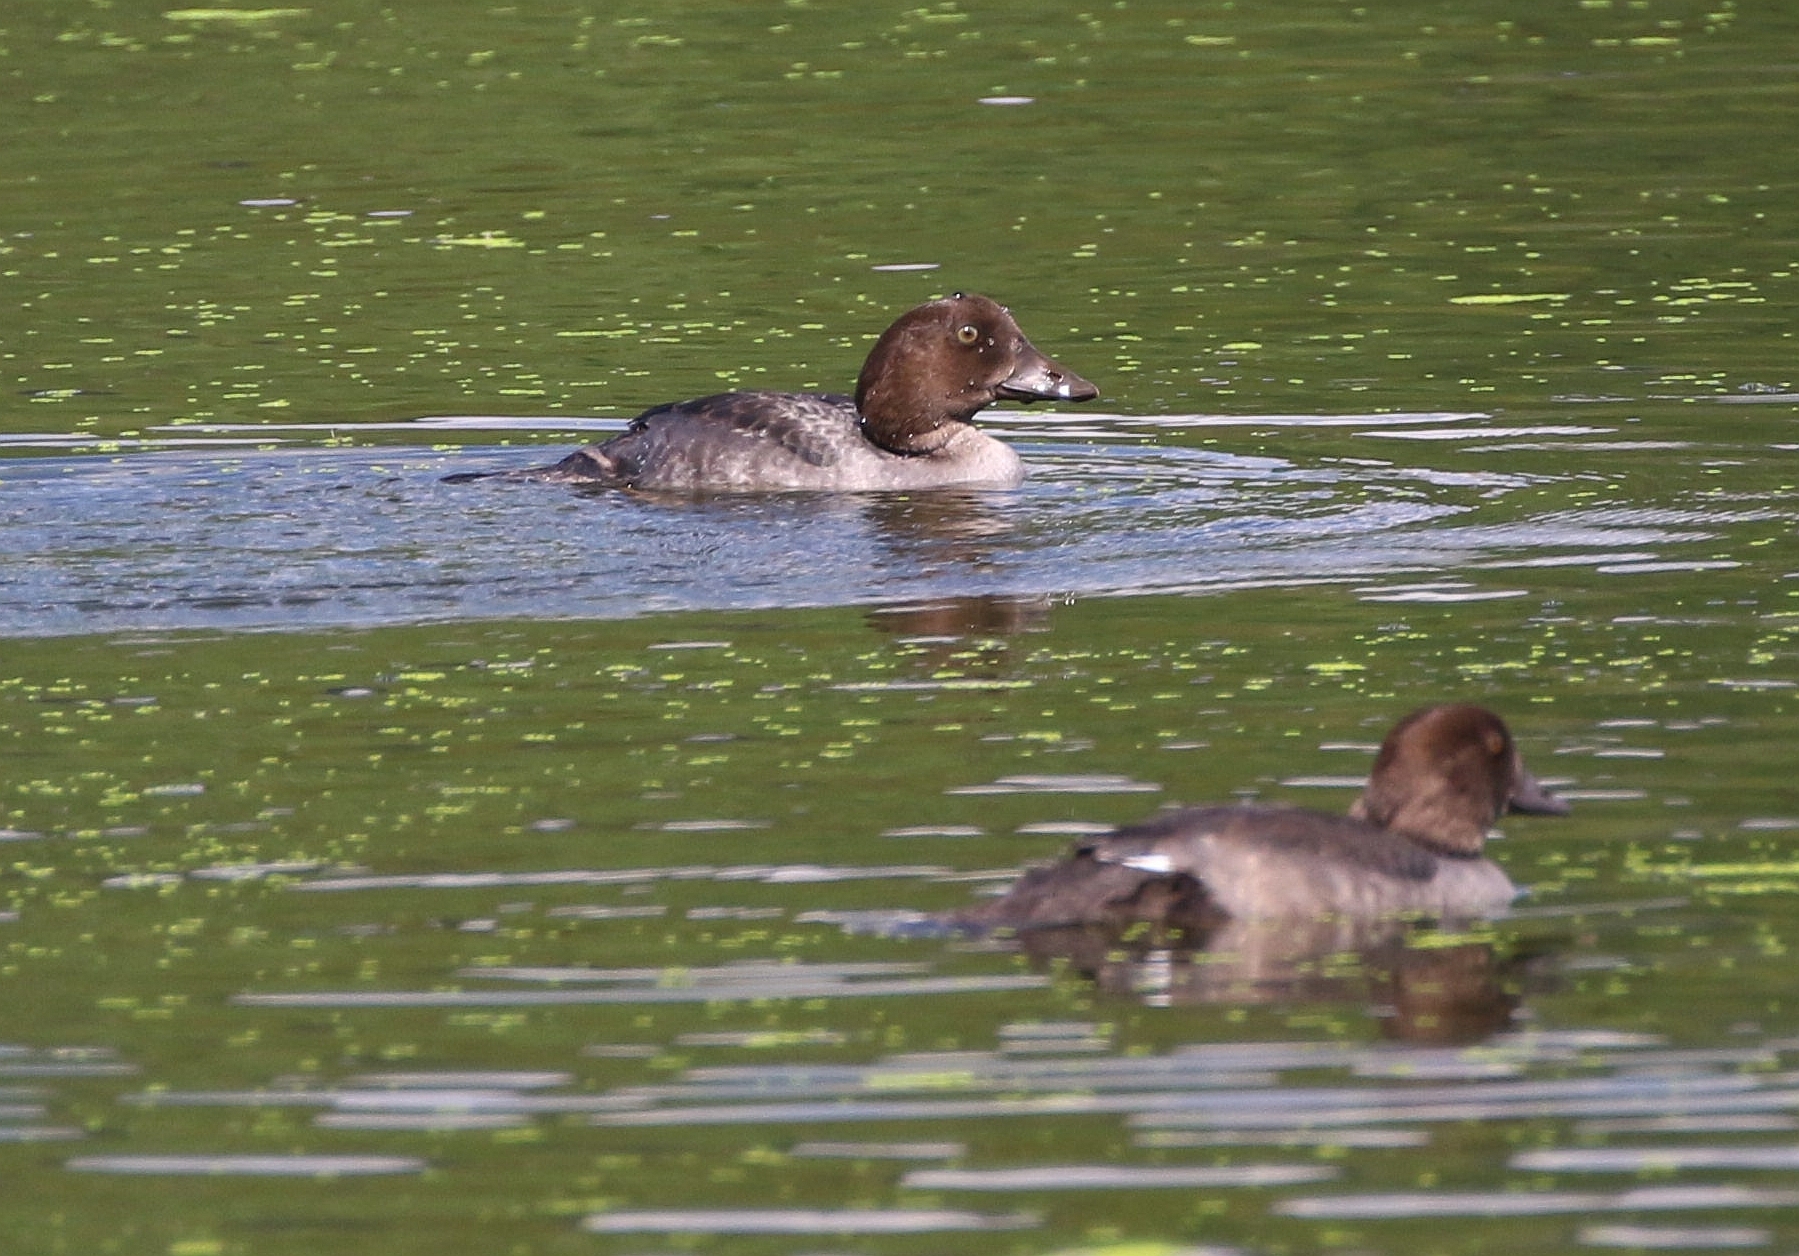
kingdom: Animalia
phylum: Chordata
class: Aves
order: Anseriformes
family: Anatidae
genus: Bucephala
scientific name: Bucephala clangula
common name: Common goldeneye
